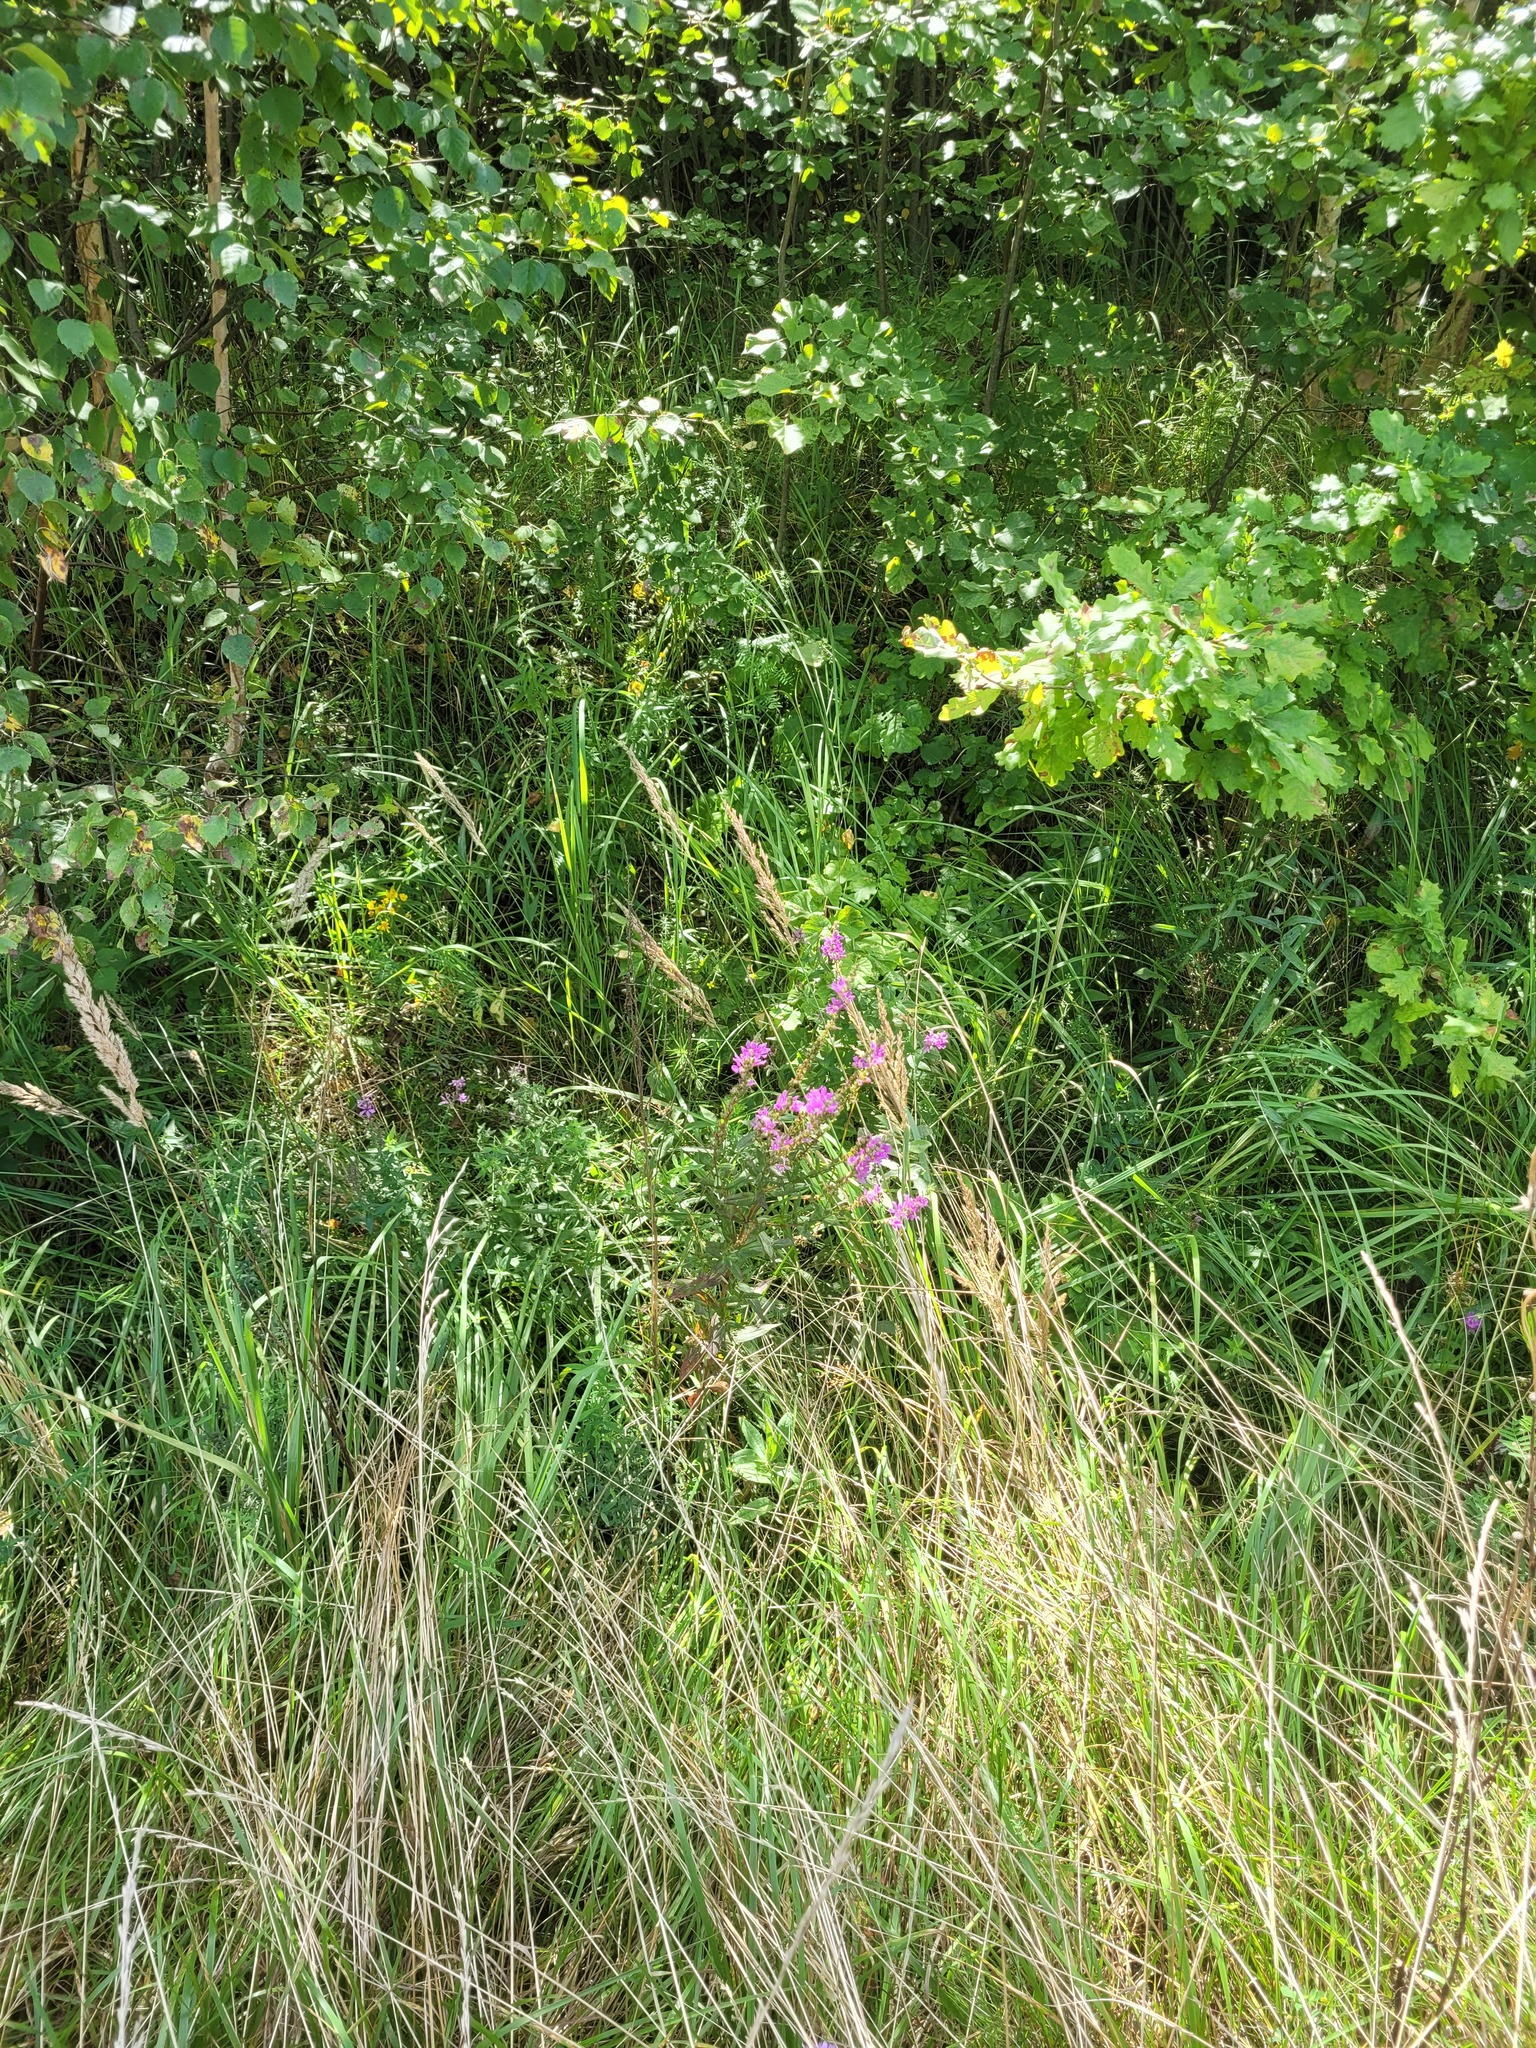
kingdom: Plantae
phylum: Tracheophyta
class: Magnoliopsida
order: Myrtales
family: Lythraceae
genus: Lythrum
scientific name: Lythrum salicaria
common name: Purple loosestrife
